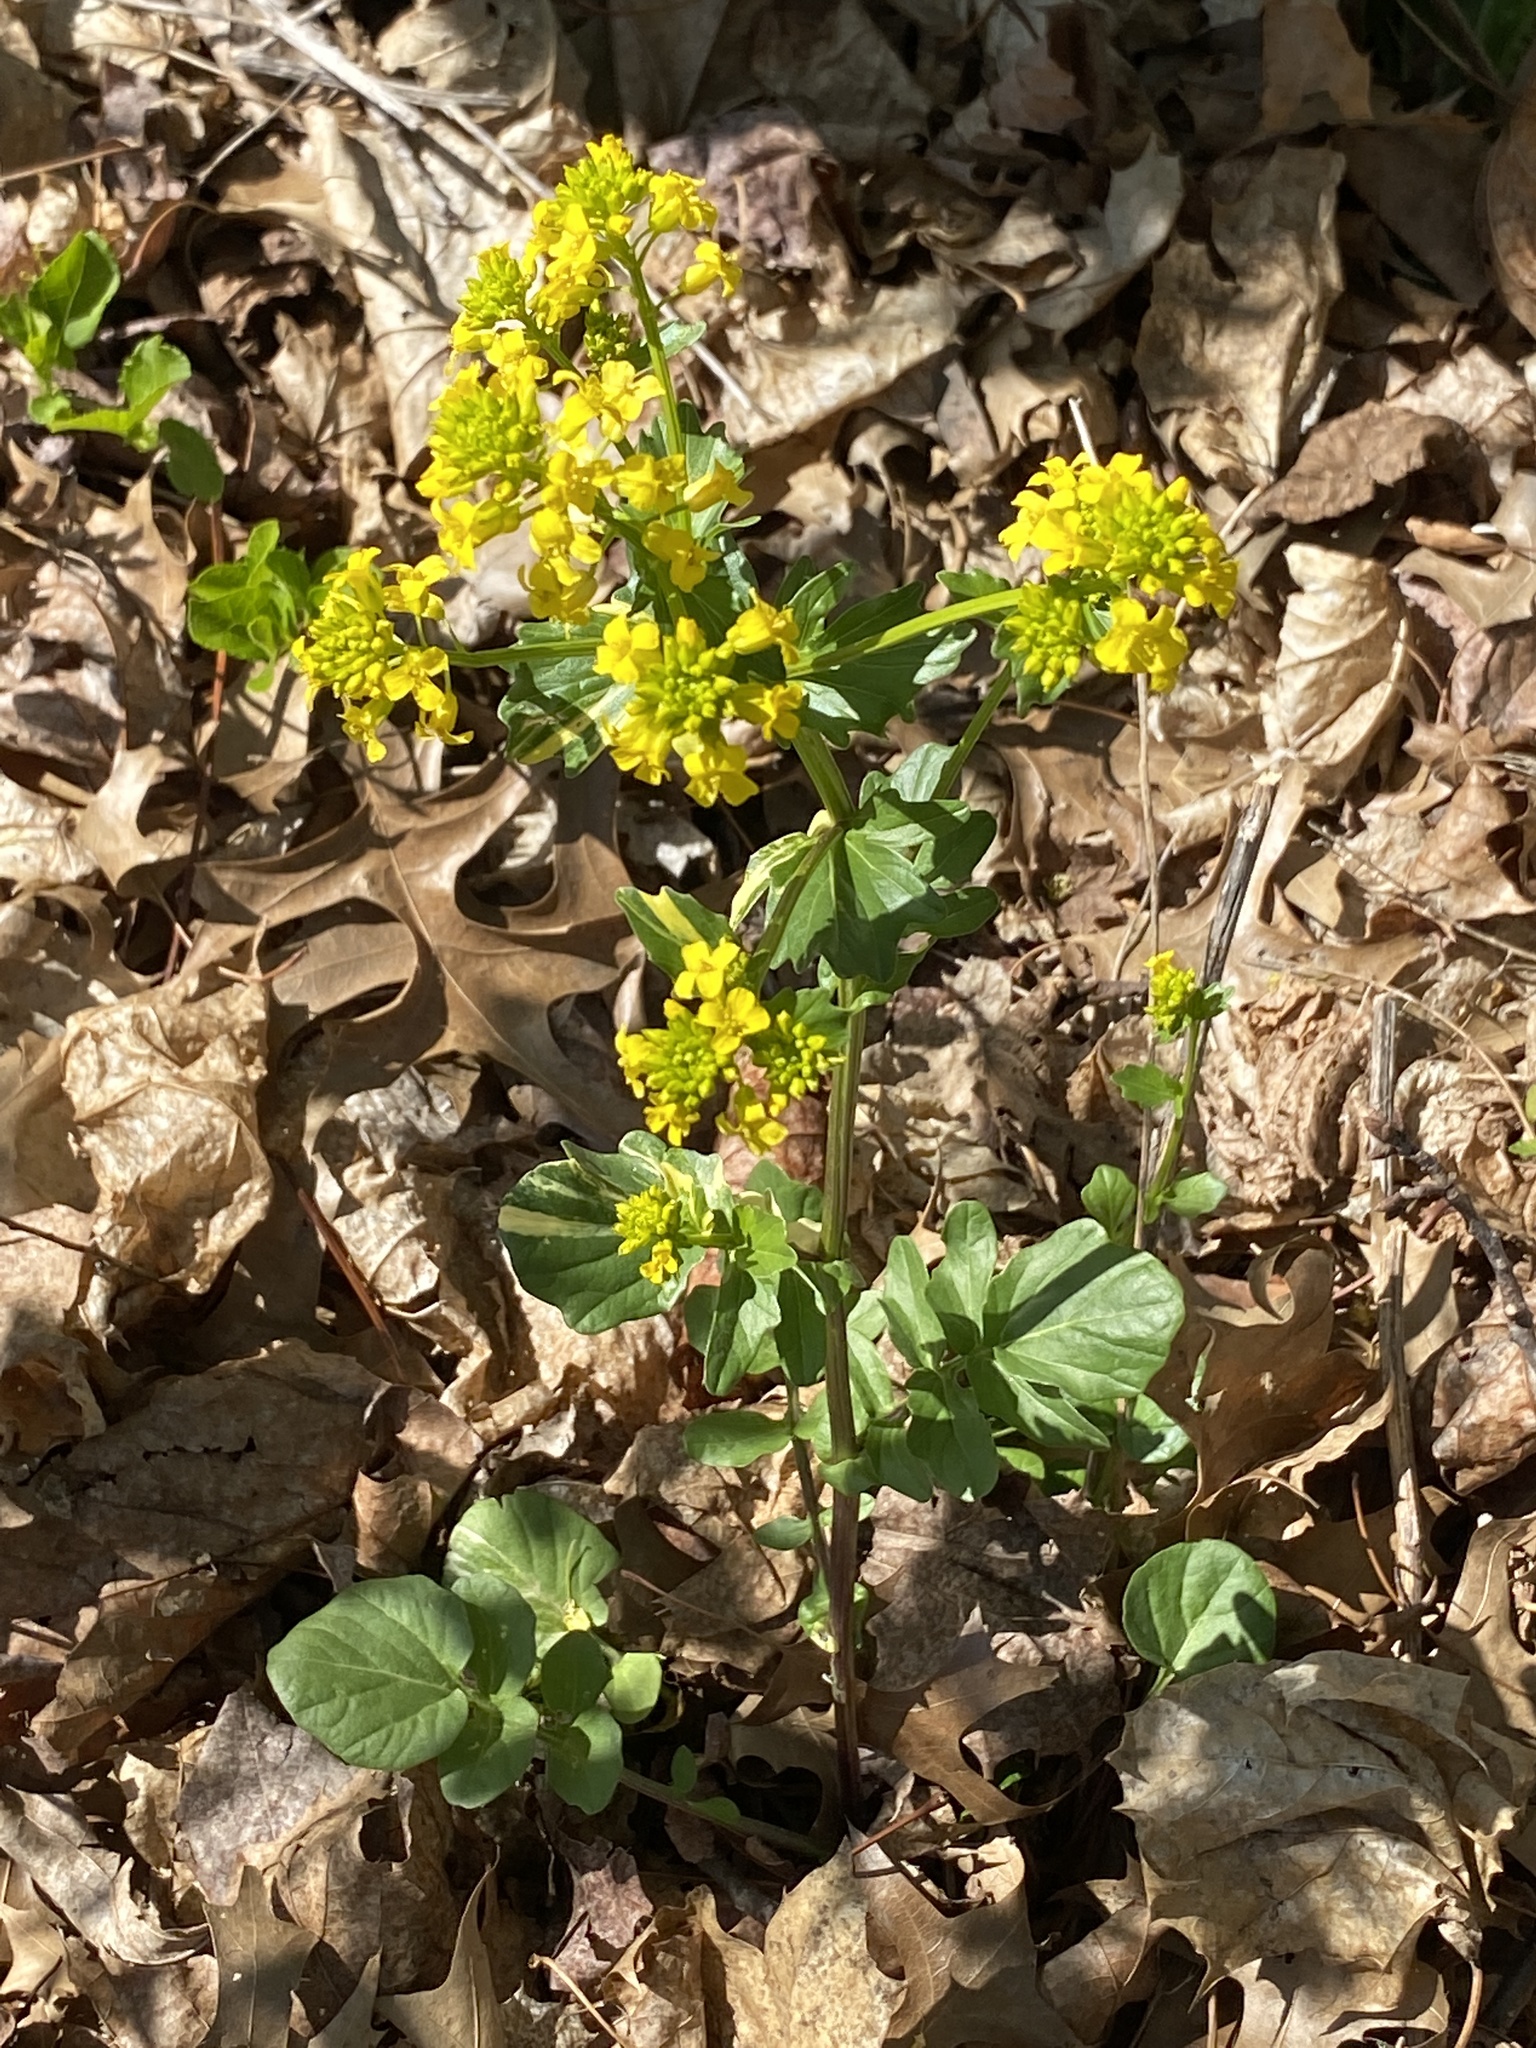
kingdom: Plantae
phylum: Tracheophyta
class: Magnoliopsida
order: Brassicales
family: Brassicaceae
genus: Barbarea
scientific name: Barbarea vulgaris
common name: Cressy-greens
